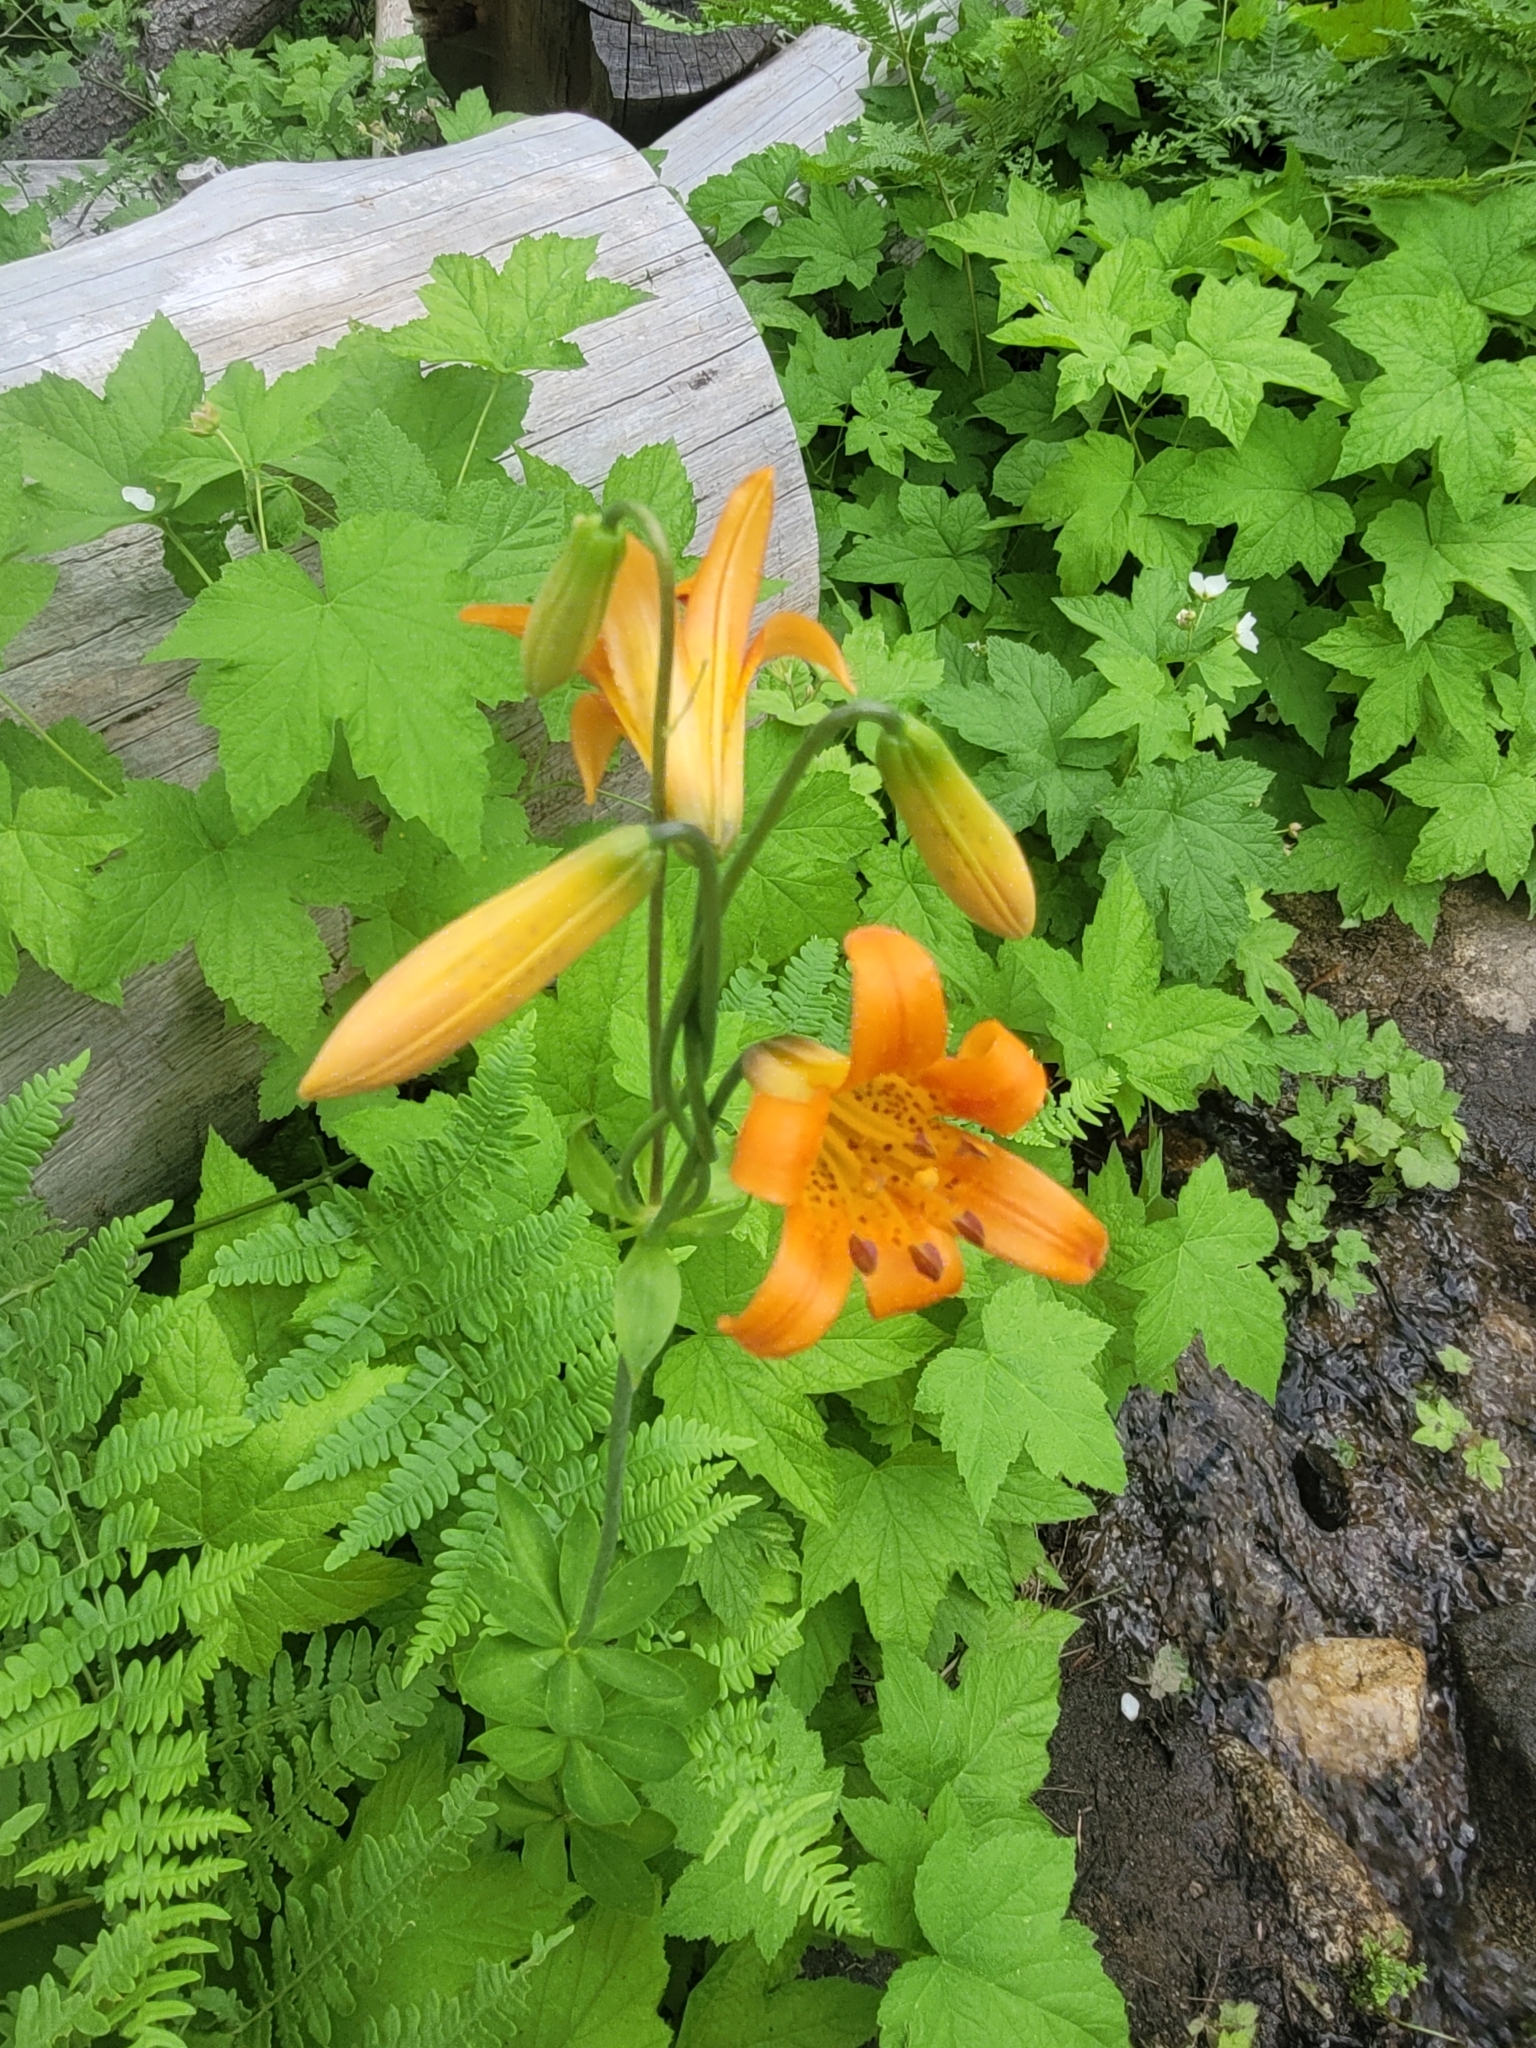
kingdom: Plantae
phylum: Tracheophyta
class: Liliopsida
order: Liliales
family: Liliaceae
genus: Lilium
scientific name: Lilium parvum
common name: Alpine lily
